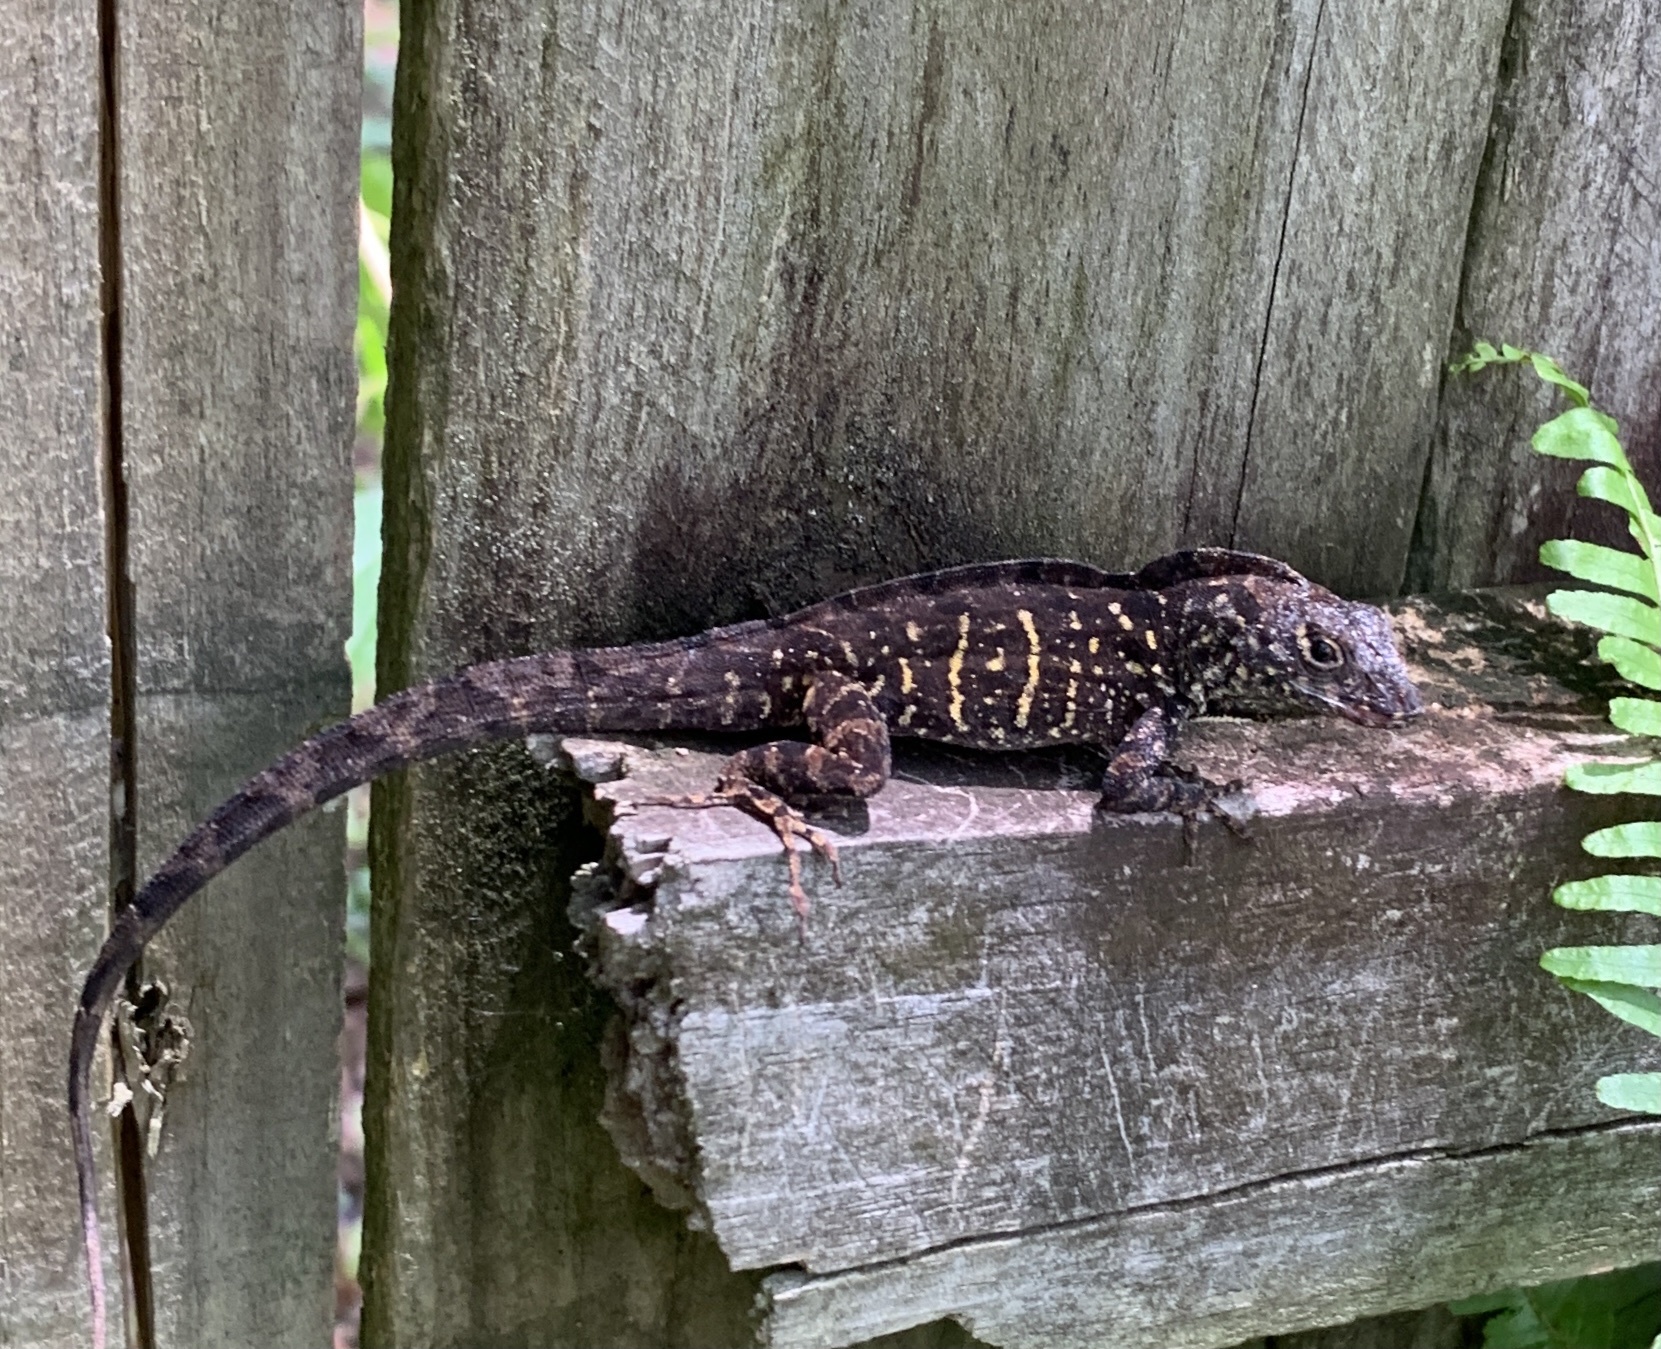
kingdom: Animalia
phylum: Chordata
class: Squamata
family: Dactyloidae
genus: Anolis
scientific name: Anolis sagrei
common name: Brown anole
